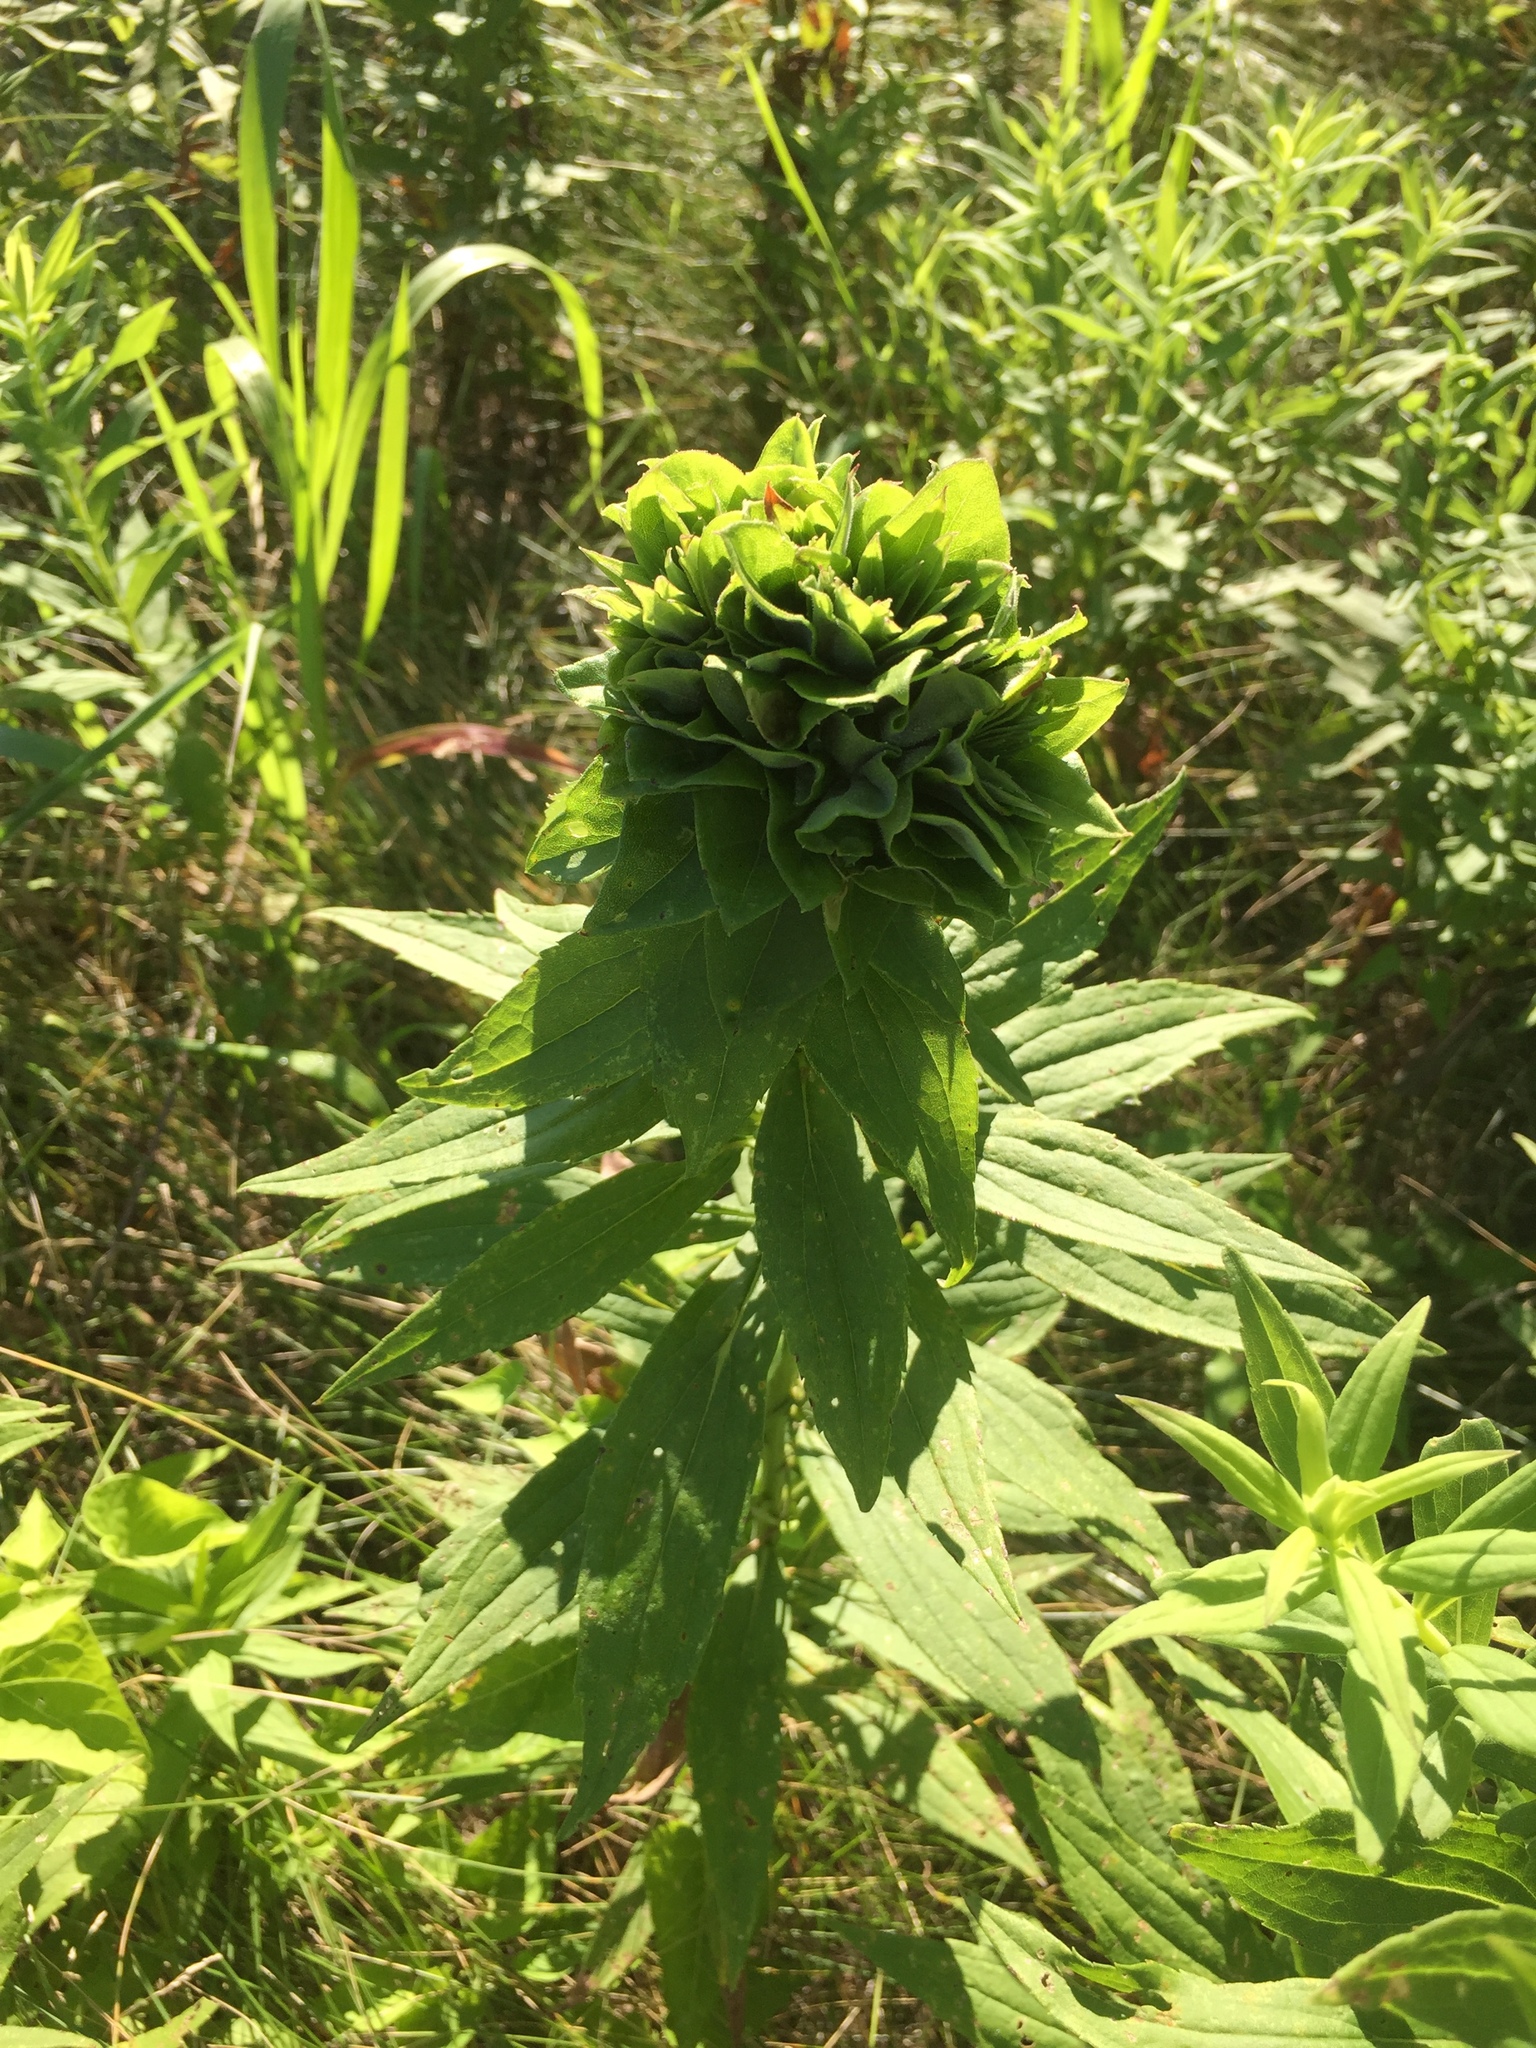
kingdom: Animalia
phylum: Arthropoda
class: Insecta
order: Diptera
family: Cecidomyiidae
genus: Rhopalomyia
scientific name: Rhopalomyia solidaginis
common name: Goldenrod bunch gall midge
